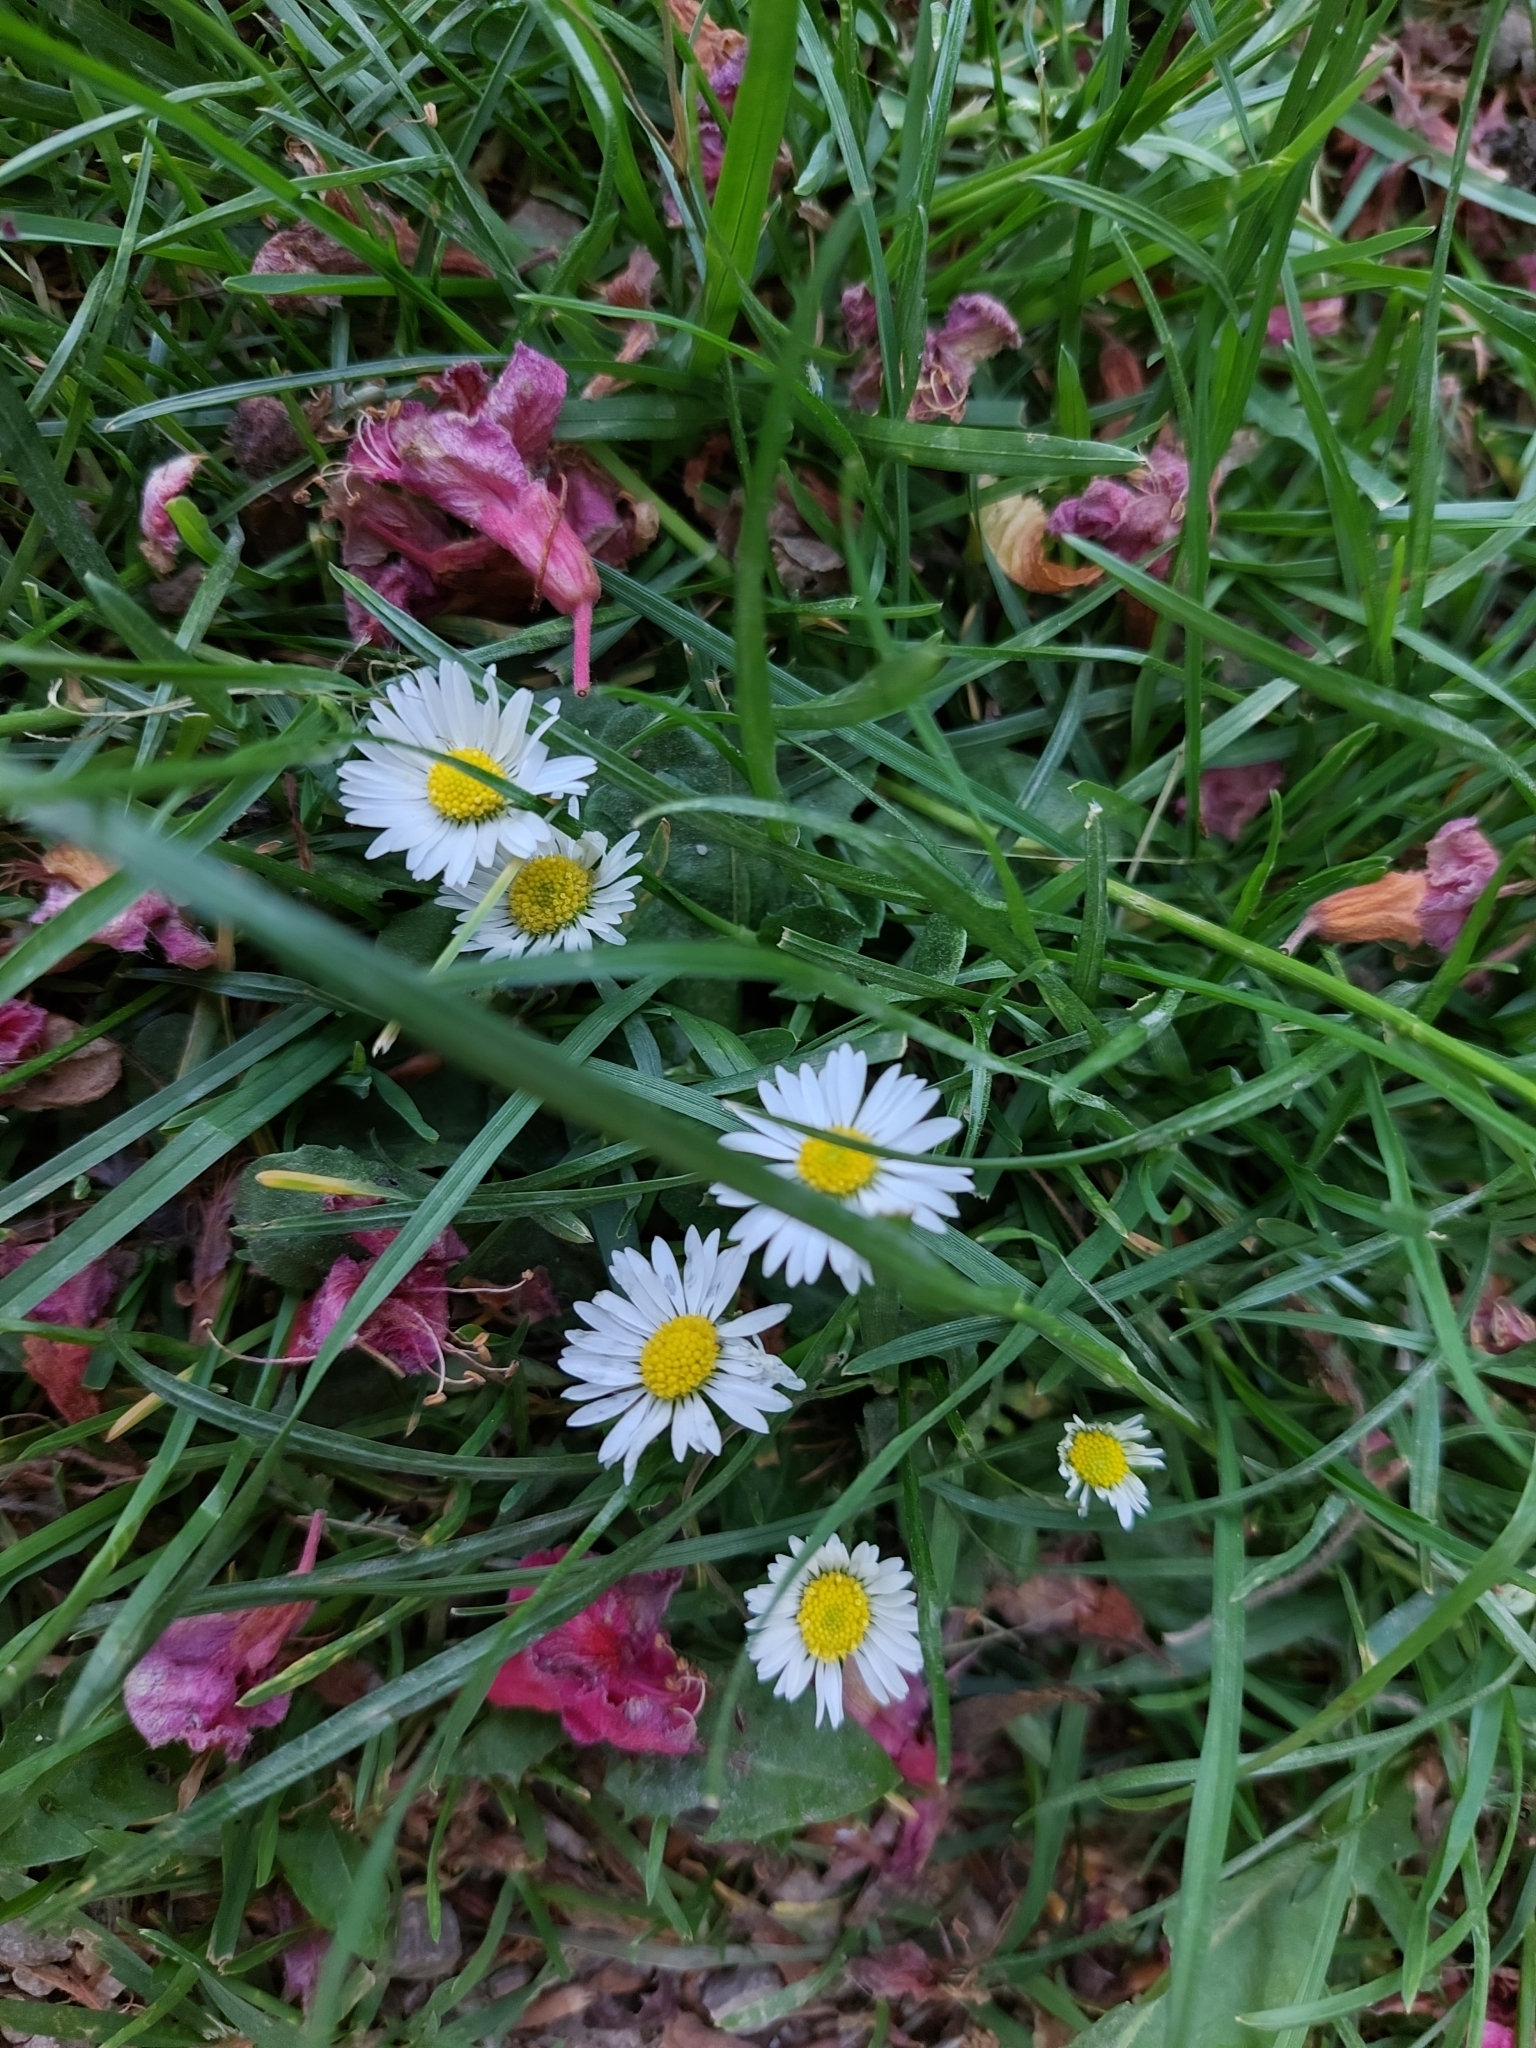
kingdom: Plantae
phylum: Tracheophyta
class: Magnoliopsida
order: Asterales
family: Asteraceae
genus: Bellis
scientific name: Bellis perennis
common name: Lawndaisy
